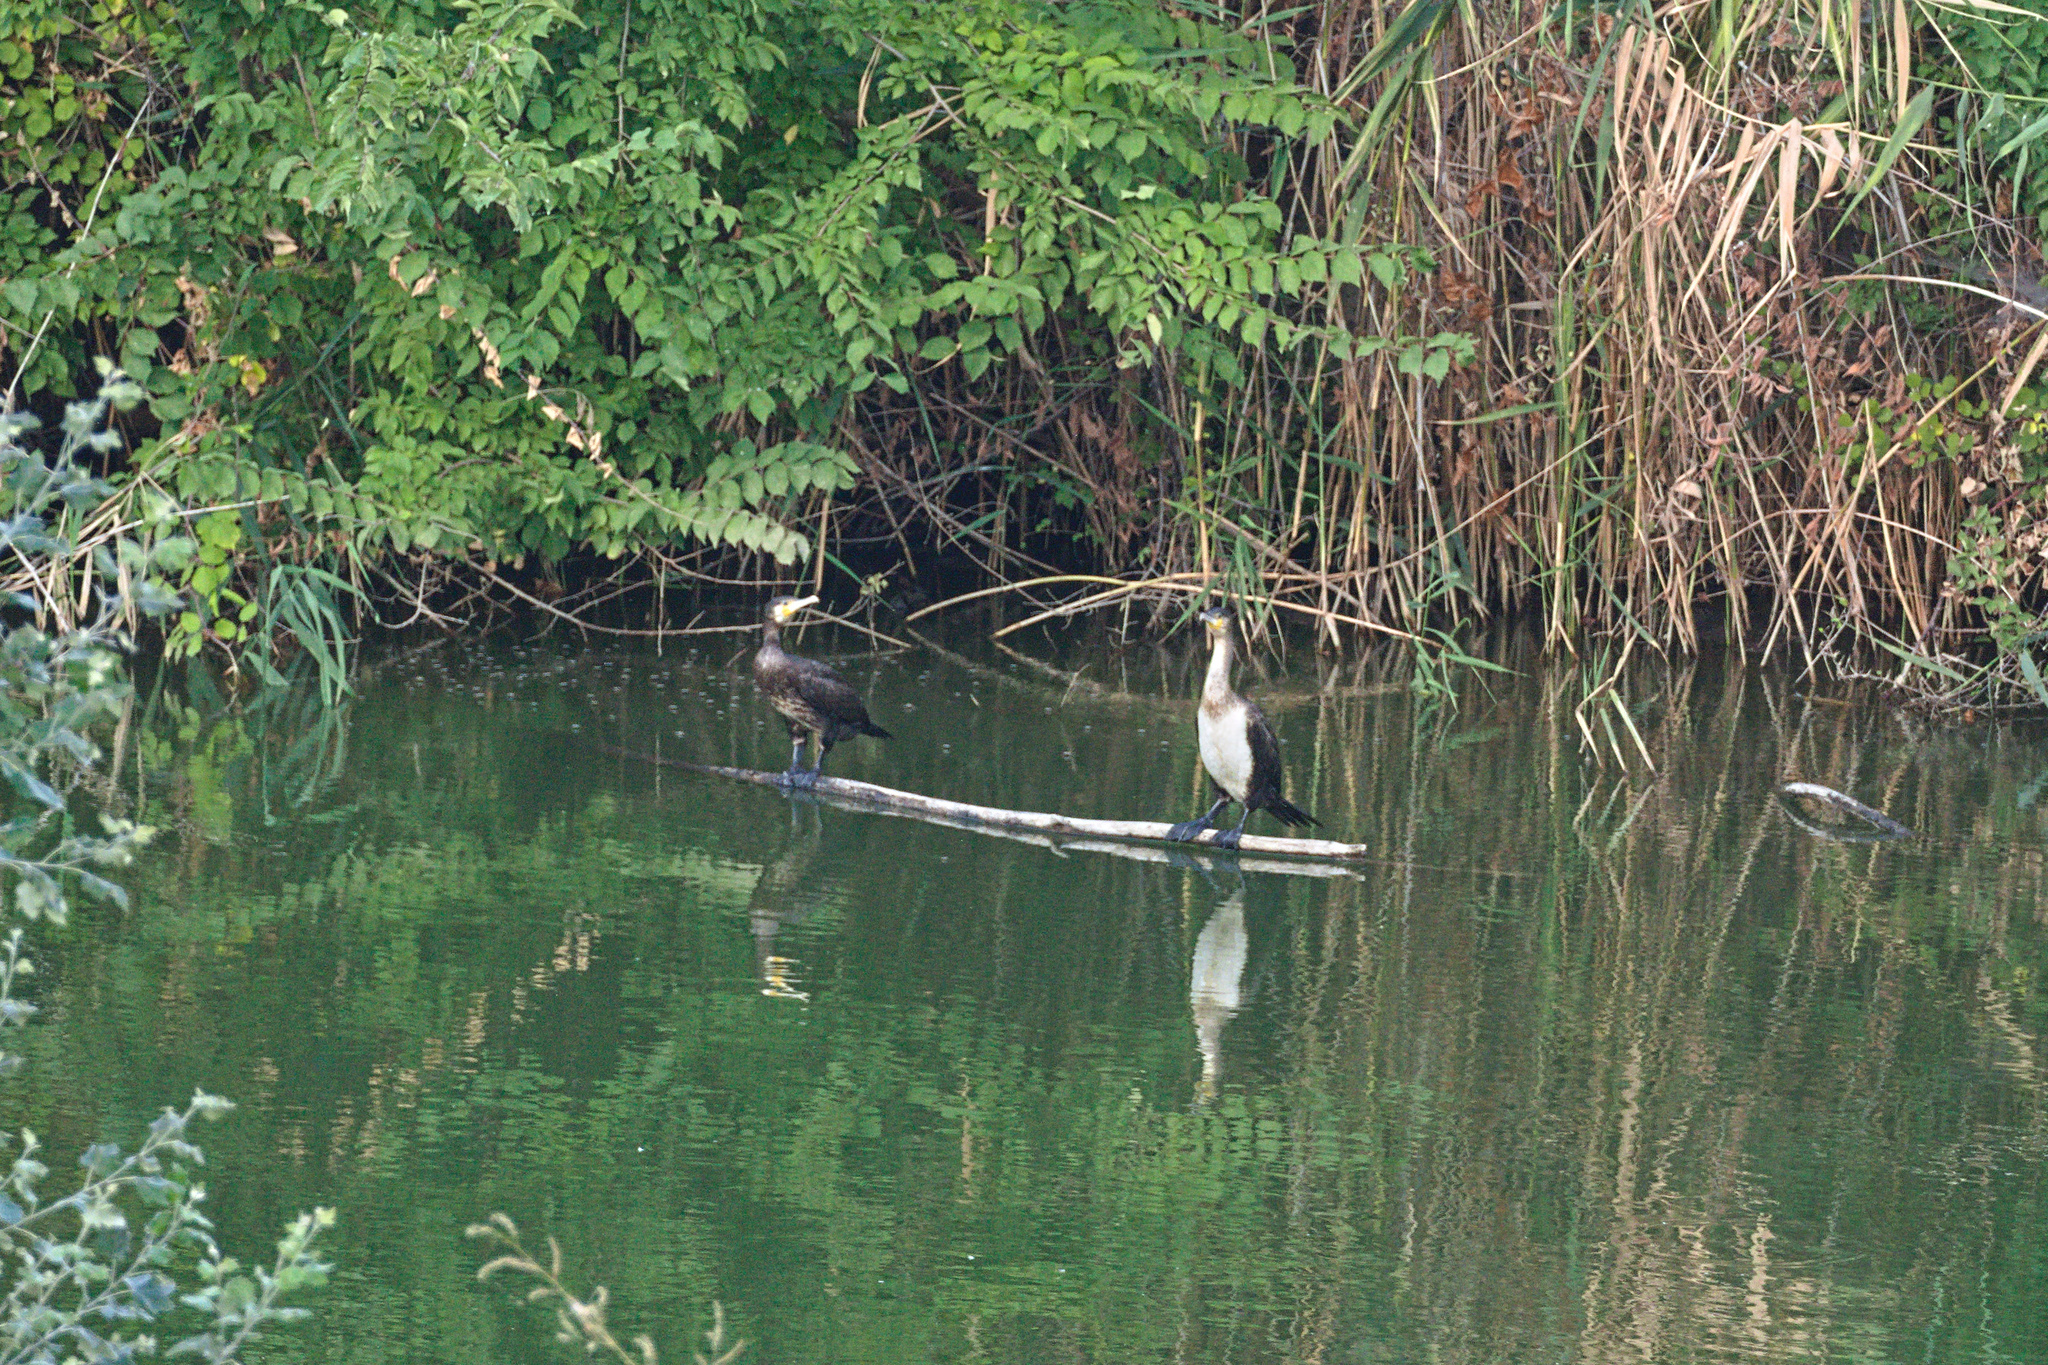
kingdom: Animalia
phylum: Chordata
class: Aves
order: Suliformes
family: Phalacrocoracidae
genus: Phalacrocorax
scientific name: Phalacrocorax carbo
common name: Great cormorant
